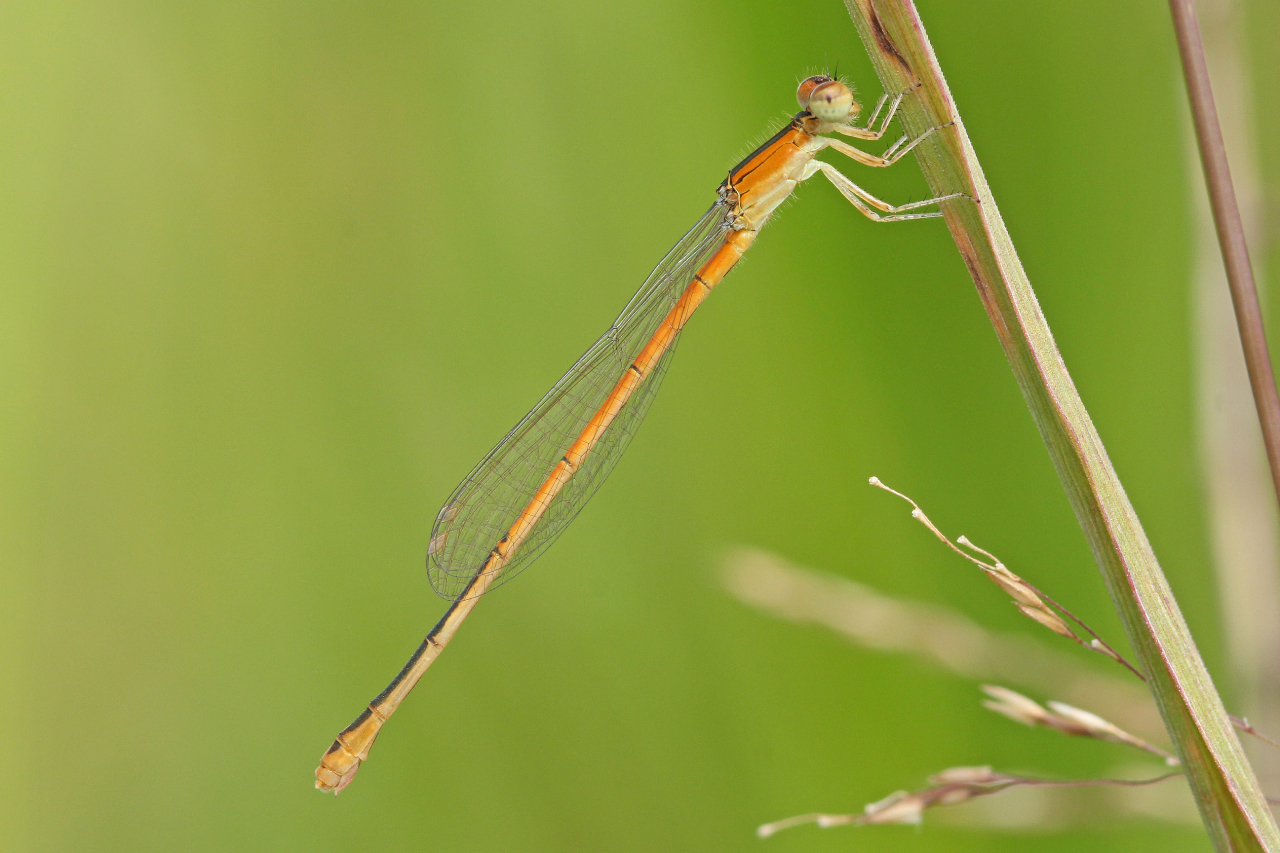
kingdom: Animalia
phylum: Arthropoda
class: Insecta
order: Odonata
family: Coenagrionidae
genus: Ischnura
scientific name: Ischnura hastata
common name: Citrine forktail
